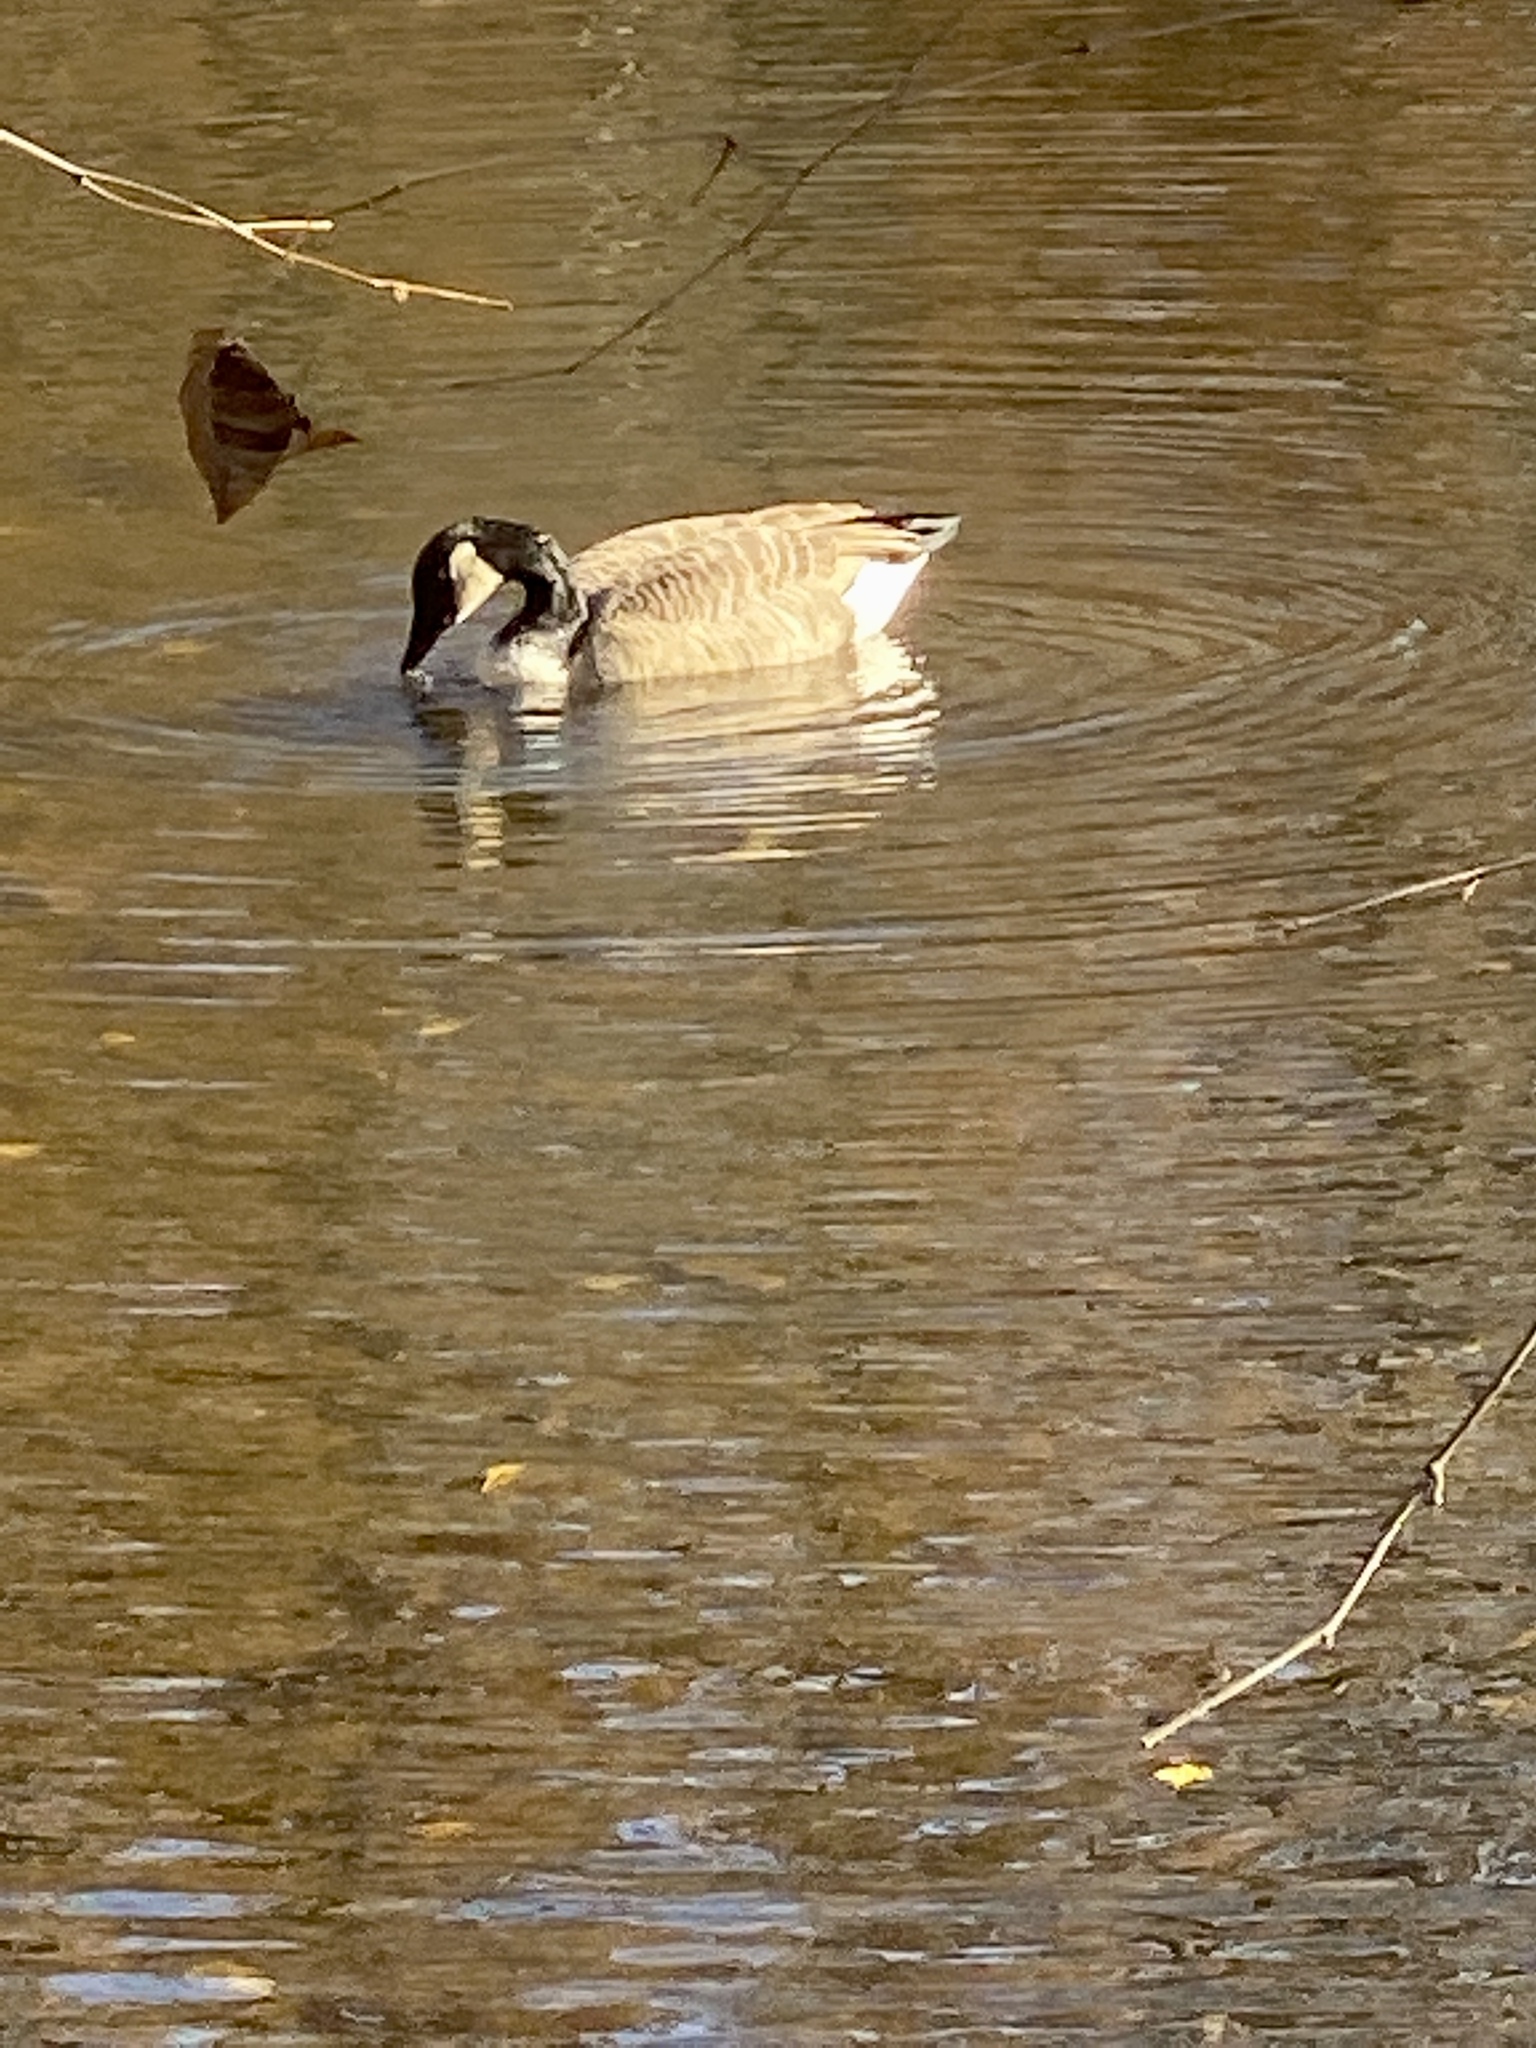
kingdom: Animalia
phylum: Chordata
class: Aves
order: Anseriformes
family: Anatidae
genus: Branta
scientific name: Branta canadensis
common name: Canada goose
